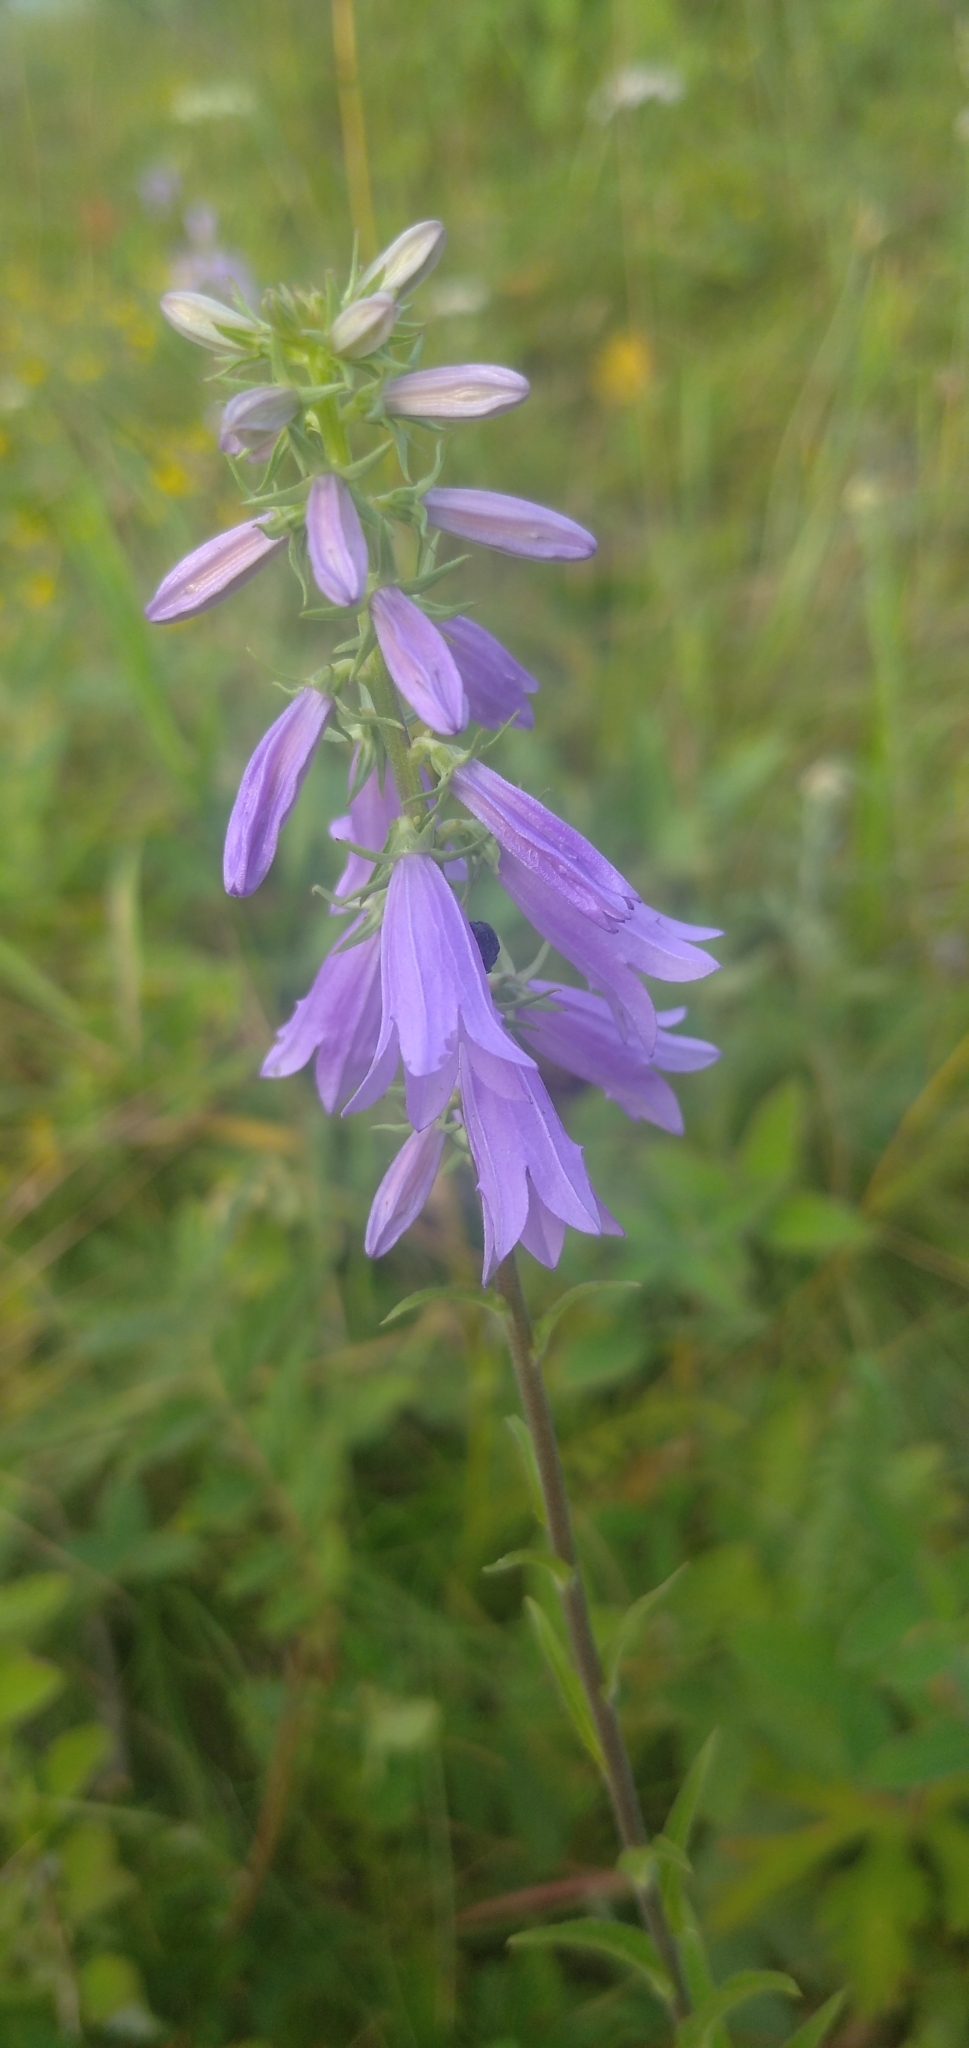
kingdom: Plantae
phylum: Tracheophyta
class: Magnoliopsida
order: Asterales
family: Campanulaceae
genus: Campanula
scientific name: Campanula bononiensis
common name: Pale bellflower
